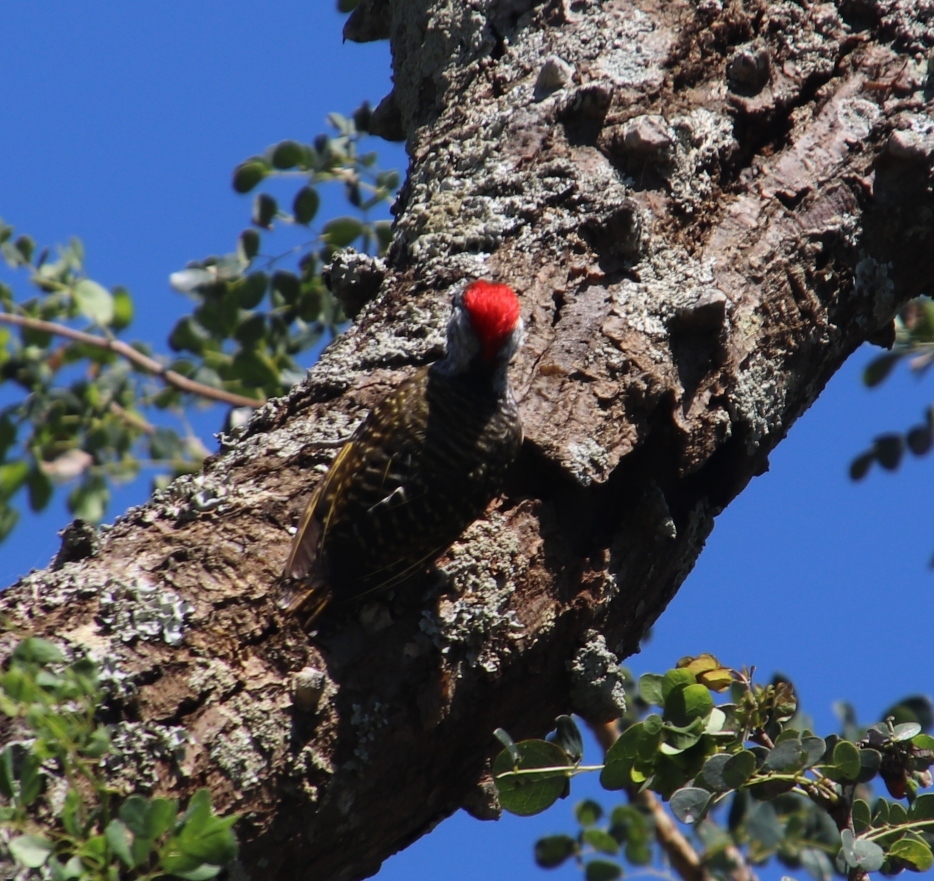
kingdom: Animalia
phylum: Chordata
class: Aves
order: Piciformes
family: Picidae
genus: Dendropicos
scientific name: Dendropicos fuscescens
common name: Cardinal woodpecker
